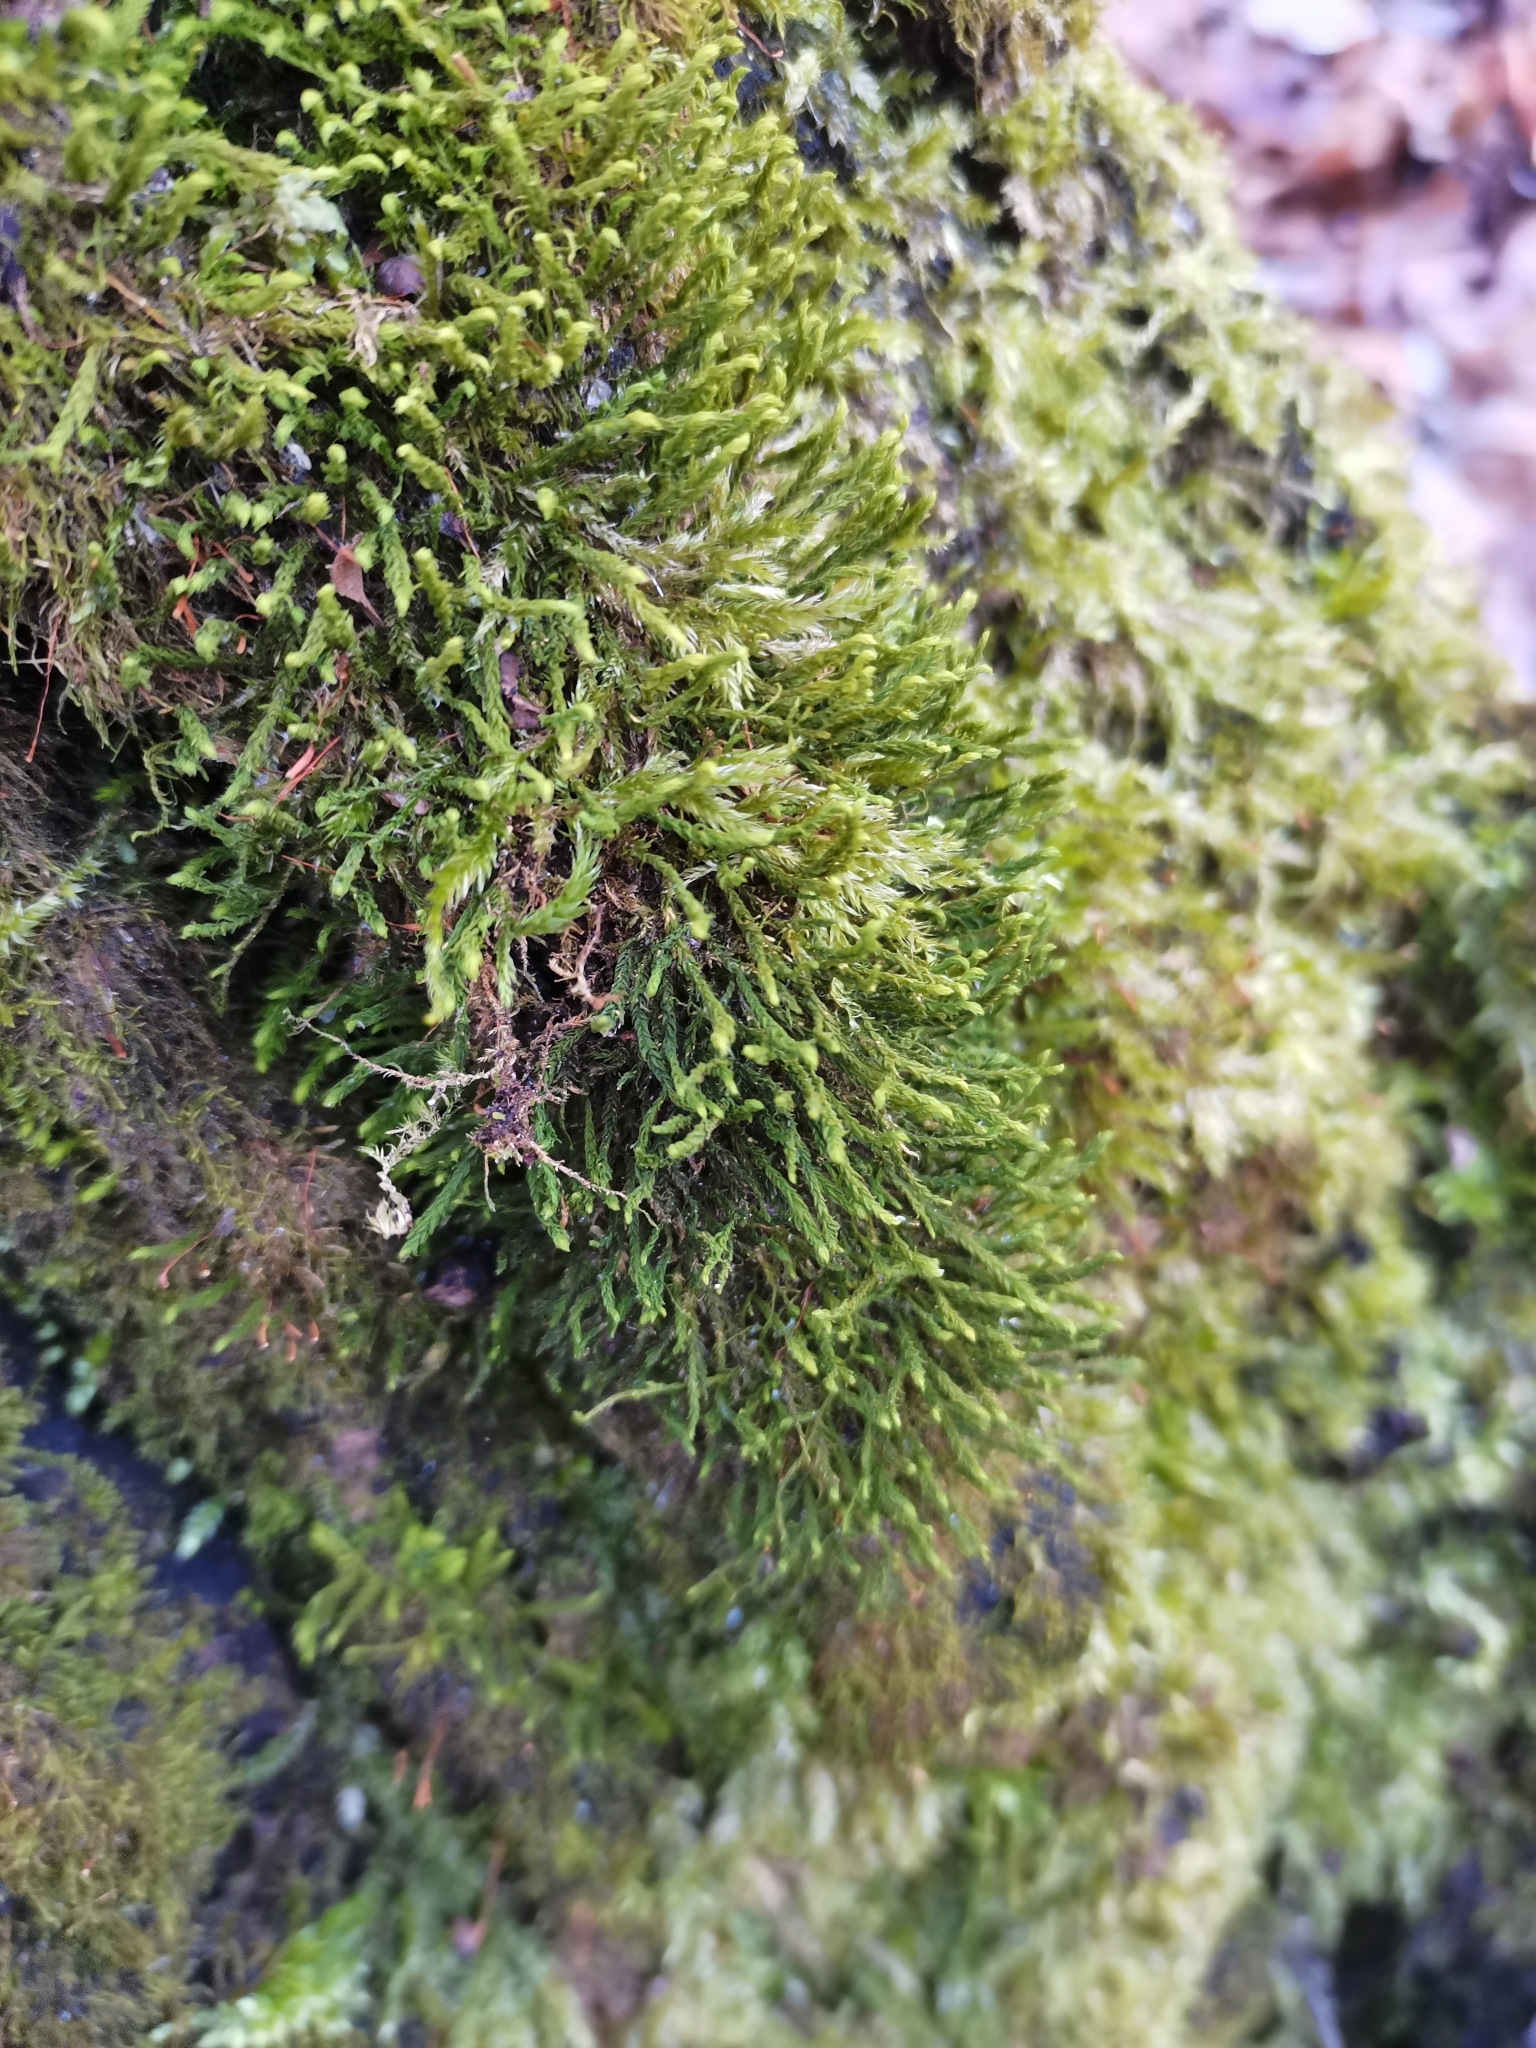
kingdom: Plantae
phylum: Bryophyta
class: Bryopsida
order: Hypnales
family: Anomodontaceae
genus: Anomodon
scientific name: Anomodon viticulosus
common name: Tall anomodon
